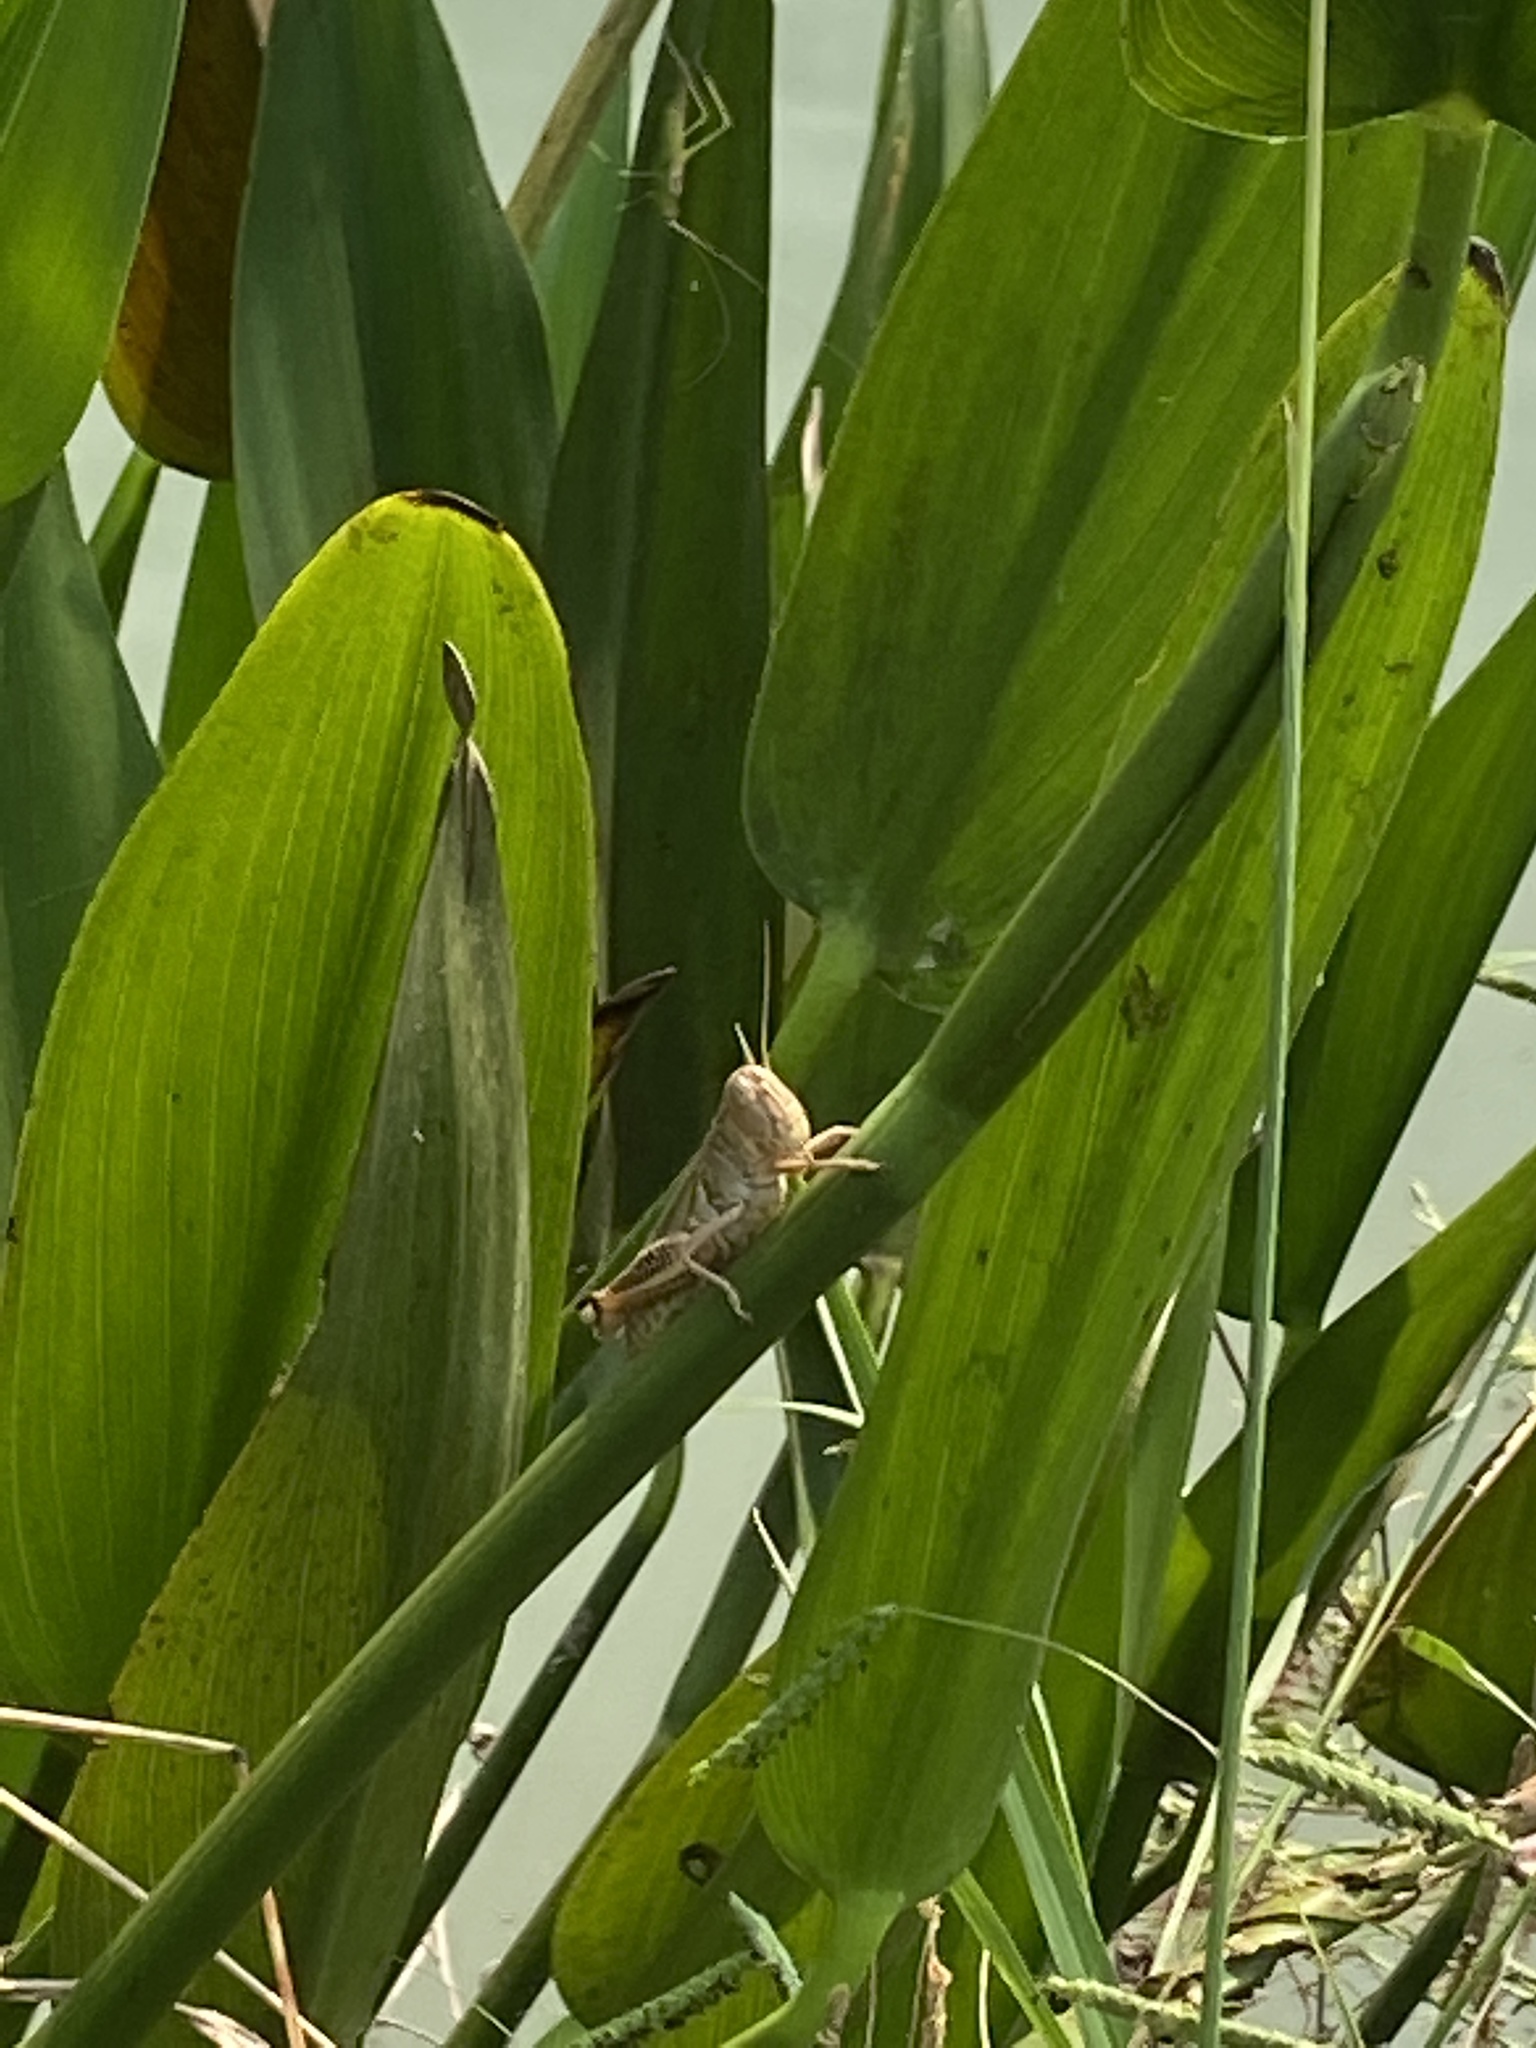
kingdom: Animalia
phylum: Arthropoda
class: Insecta
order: Orthoptera
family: Acrididae
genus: Melanoplus
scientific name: Melanoplus differentialis
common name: Differential grasshopper
